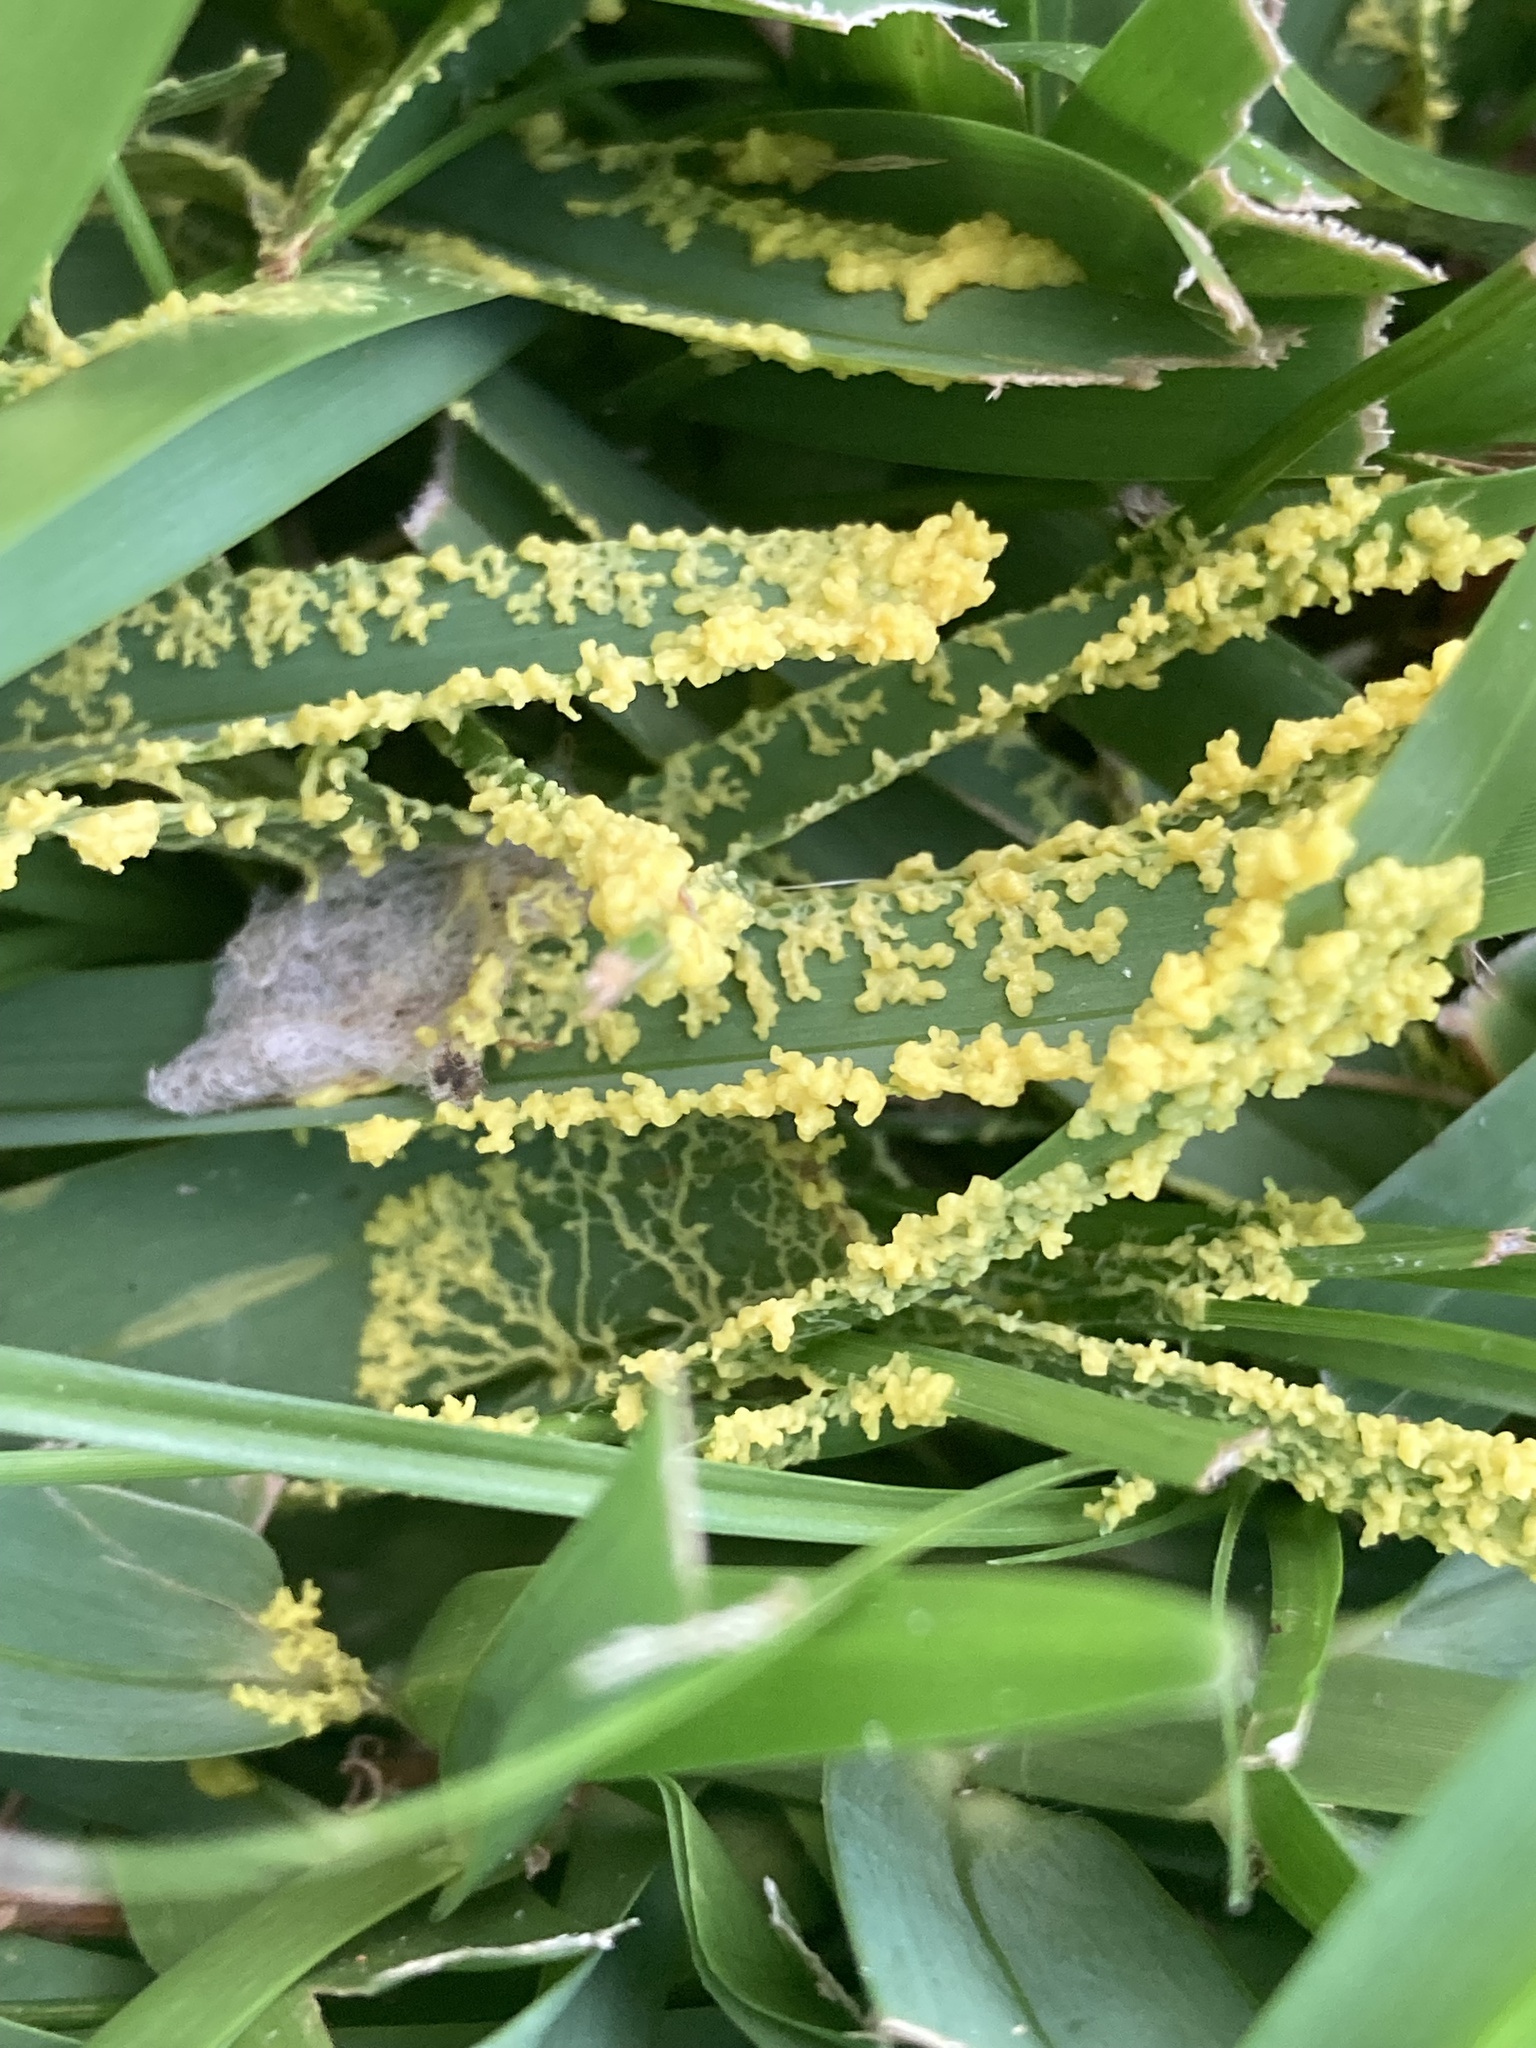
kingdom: Protozoa
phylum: Mycetozoa
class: Myxomycetes
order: Physarales
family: Physaraceae
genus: Fuligo
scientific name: Fuligo septica
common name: Dog vomit slime mold
